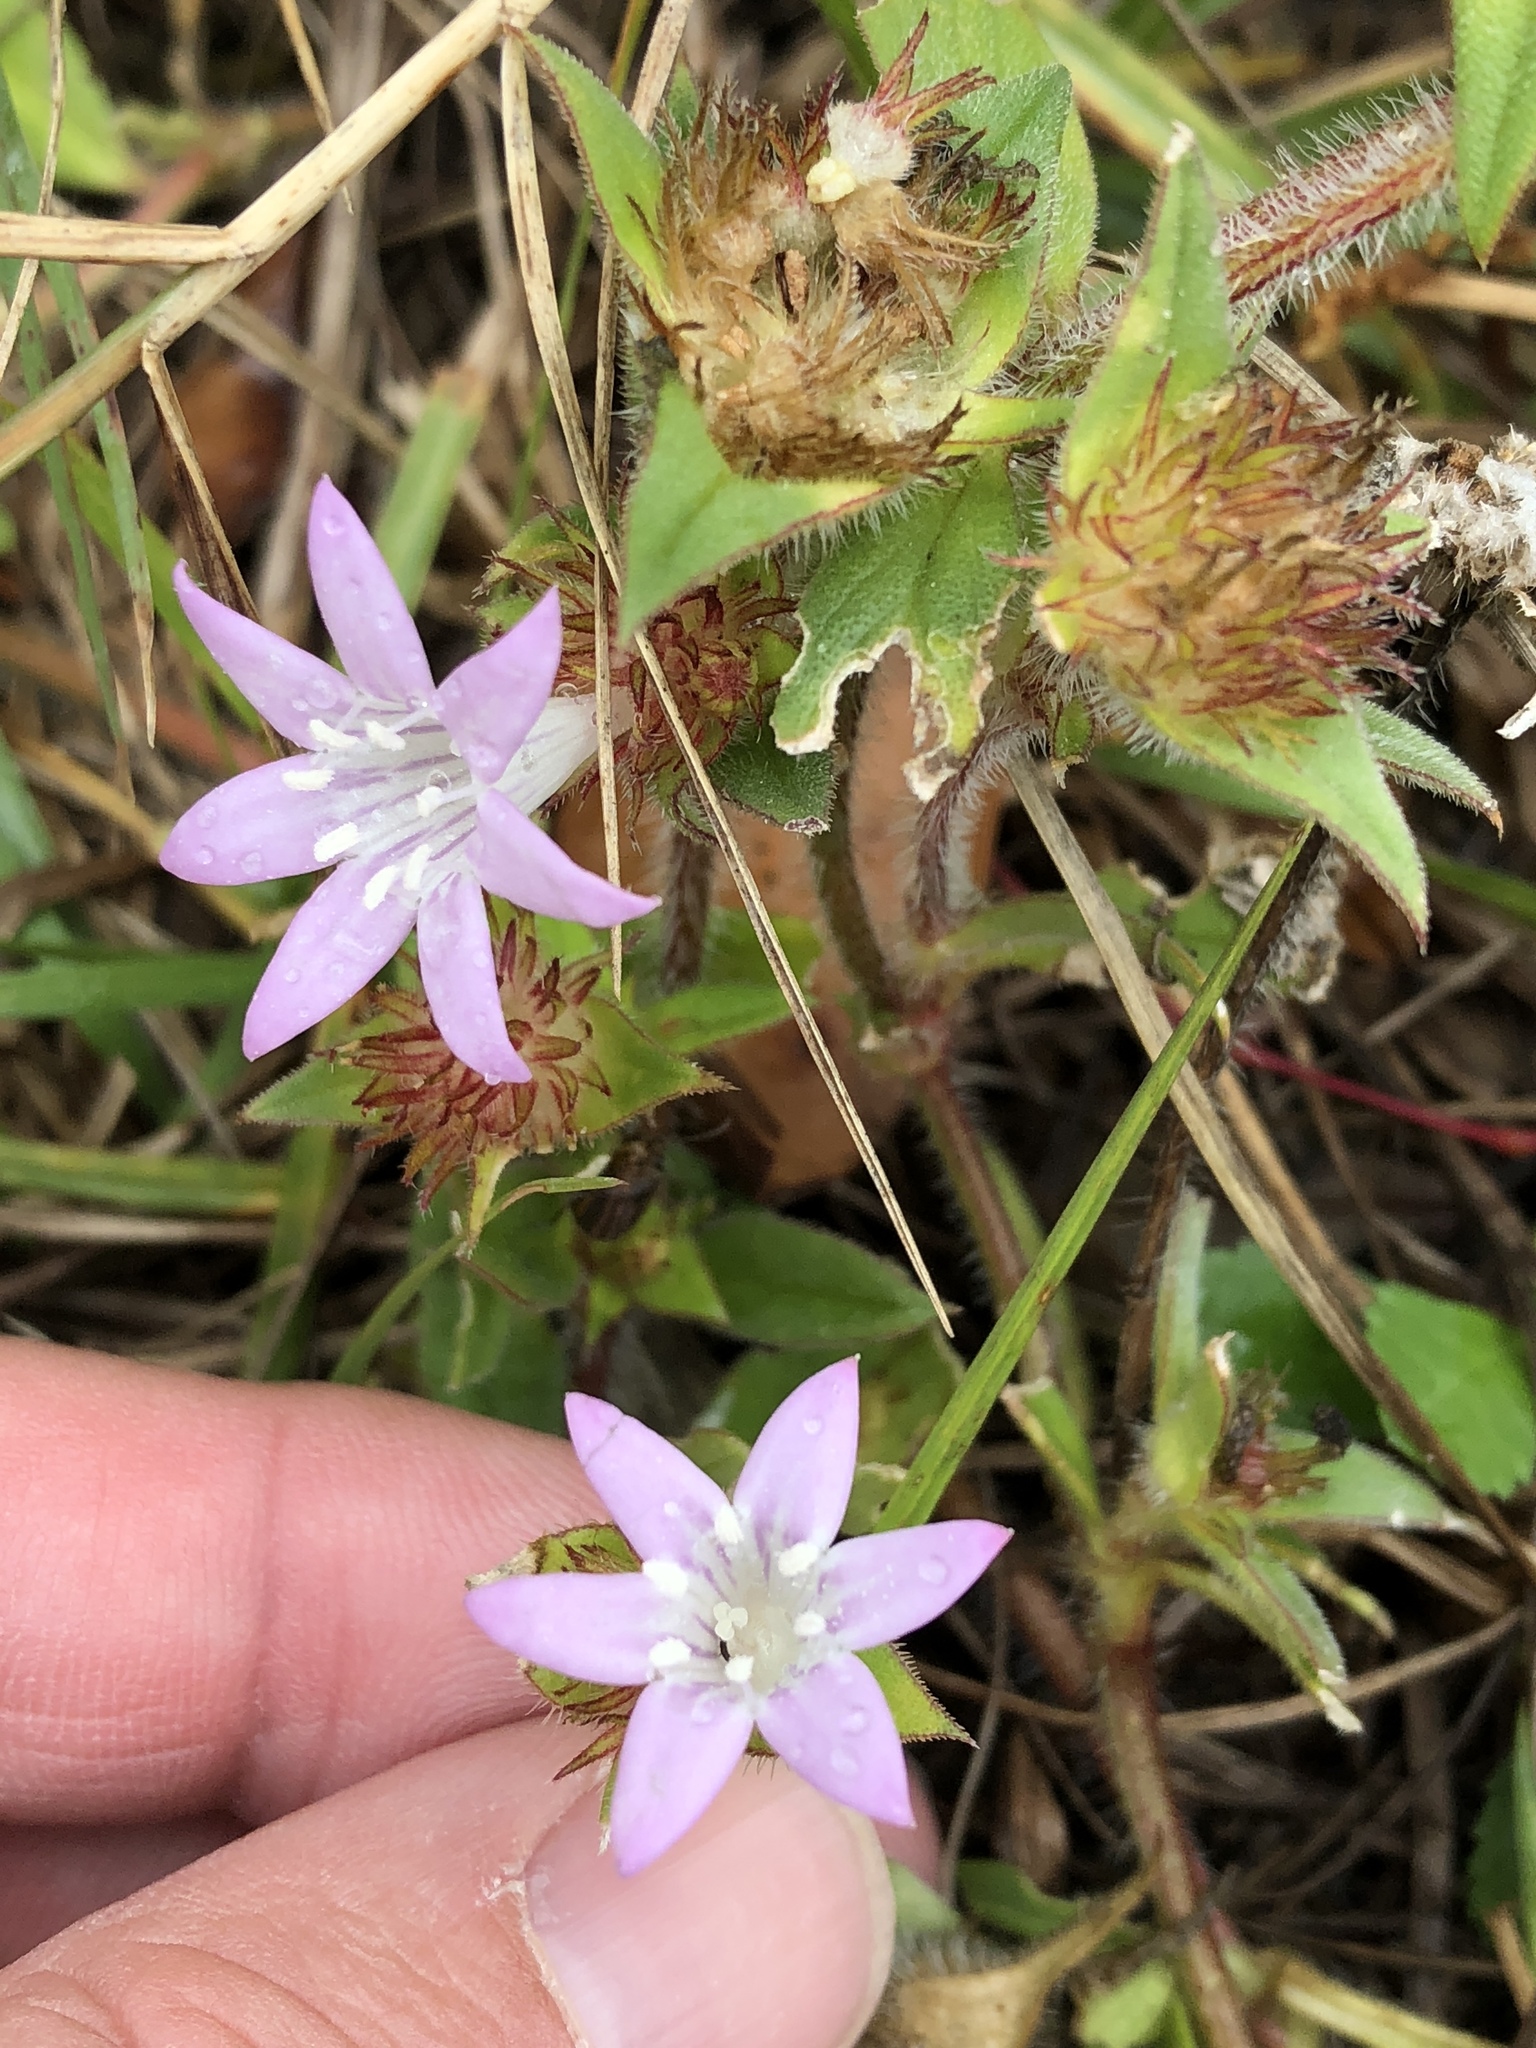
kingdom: Plantae
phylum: Tracheophyta
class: Magnoliopsida
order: Gentianales
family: Rubiaceae
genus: Richardia
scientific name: Richardia grandiflora
